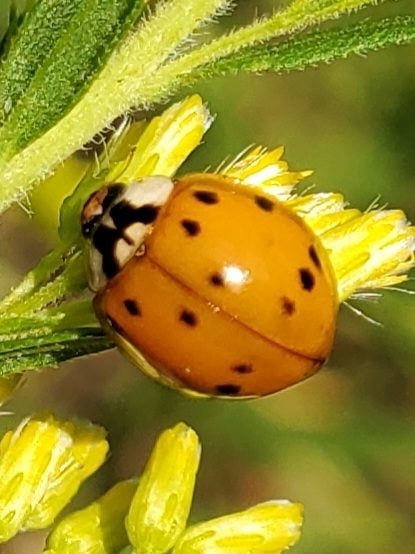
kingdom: Animalia
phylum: Arthropoda
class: Insecta
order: Coleoptera
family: Coccinellidae
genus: Harmonia
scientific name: Harmonia axyridis
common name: Harlequin ladybird
